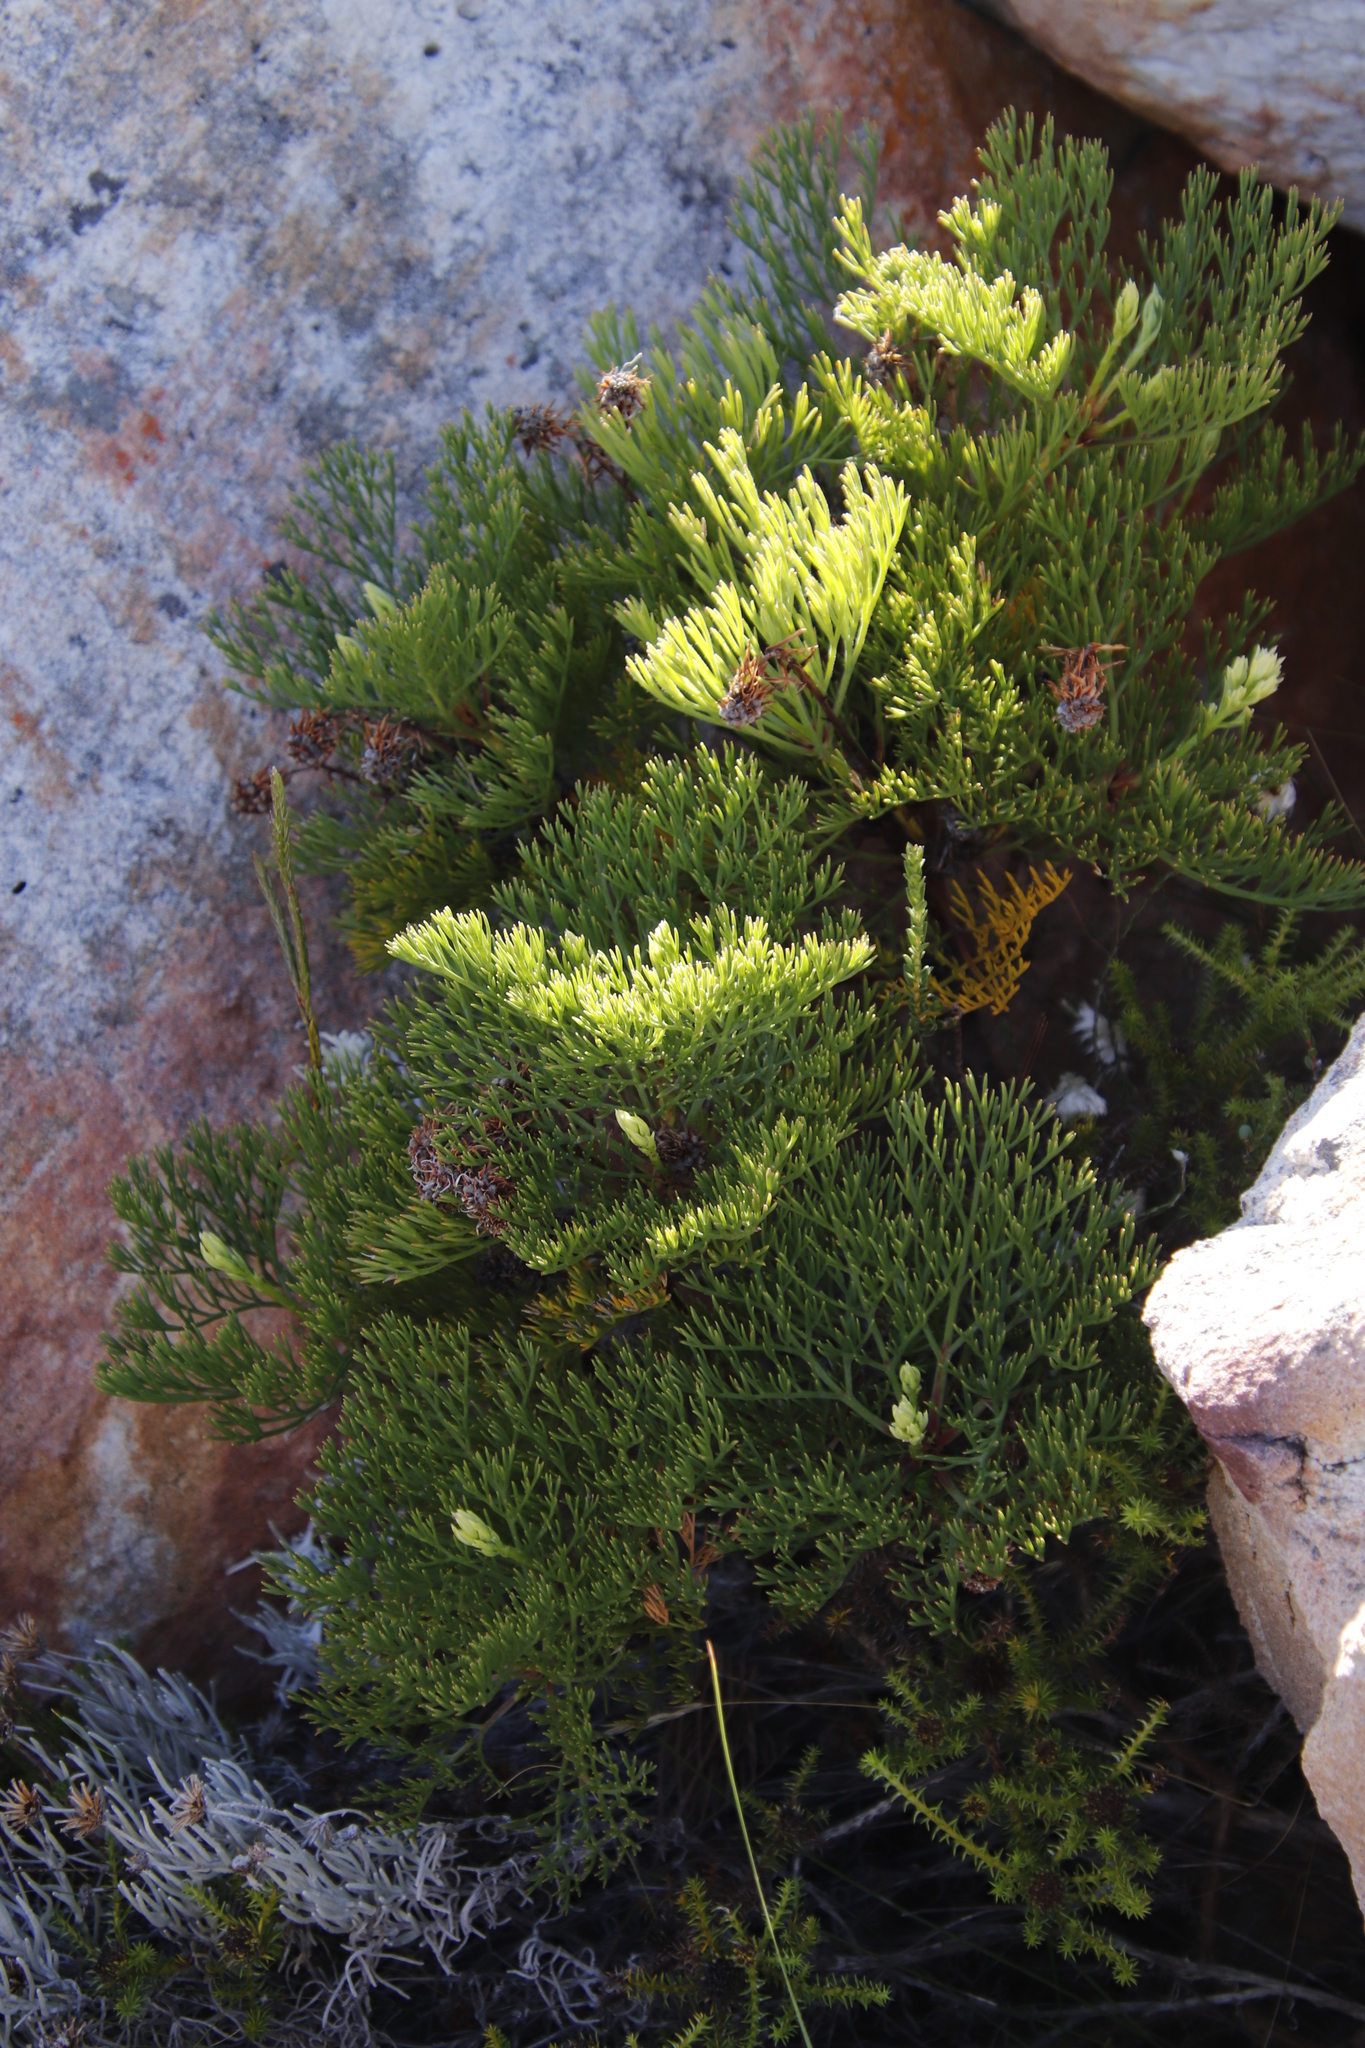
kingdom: Plantae
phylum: Tracheophyta
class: Magnoliopsida
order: Proteales
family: Proteaceae
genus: Serruria
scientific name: Serruria elongata
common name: Long-stalk spiderhead
